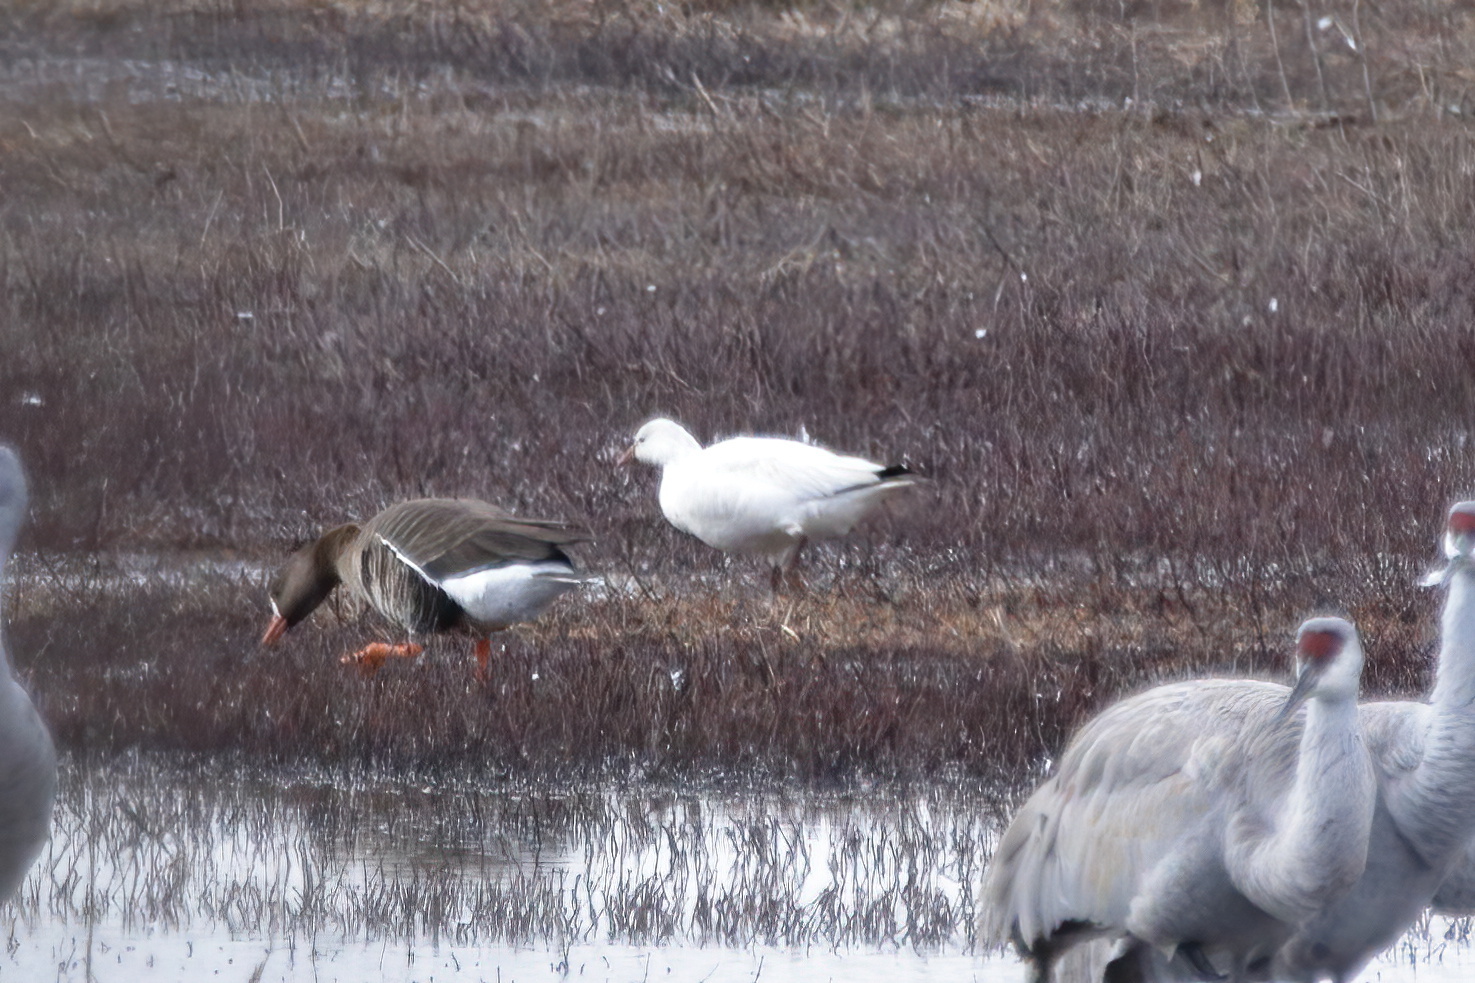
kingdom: Animalia
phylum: Chordata
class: Aves
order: Anseriformes
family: Anatidae
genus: Anser
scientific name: Anser caerulescens
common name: Snow goose
